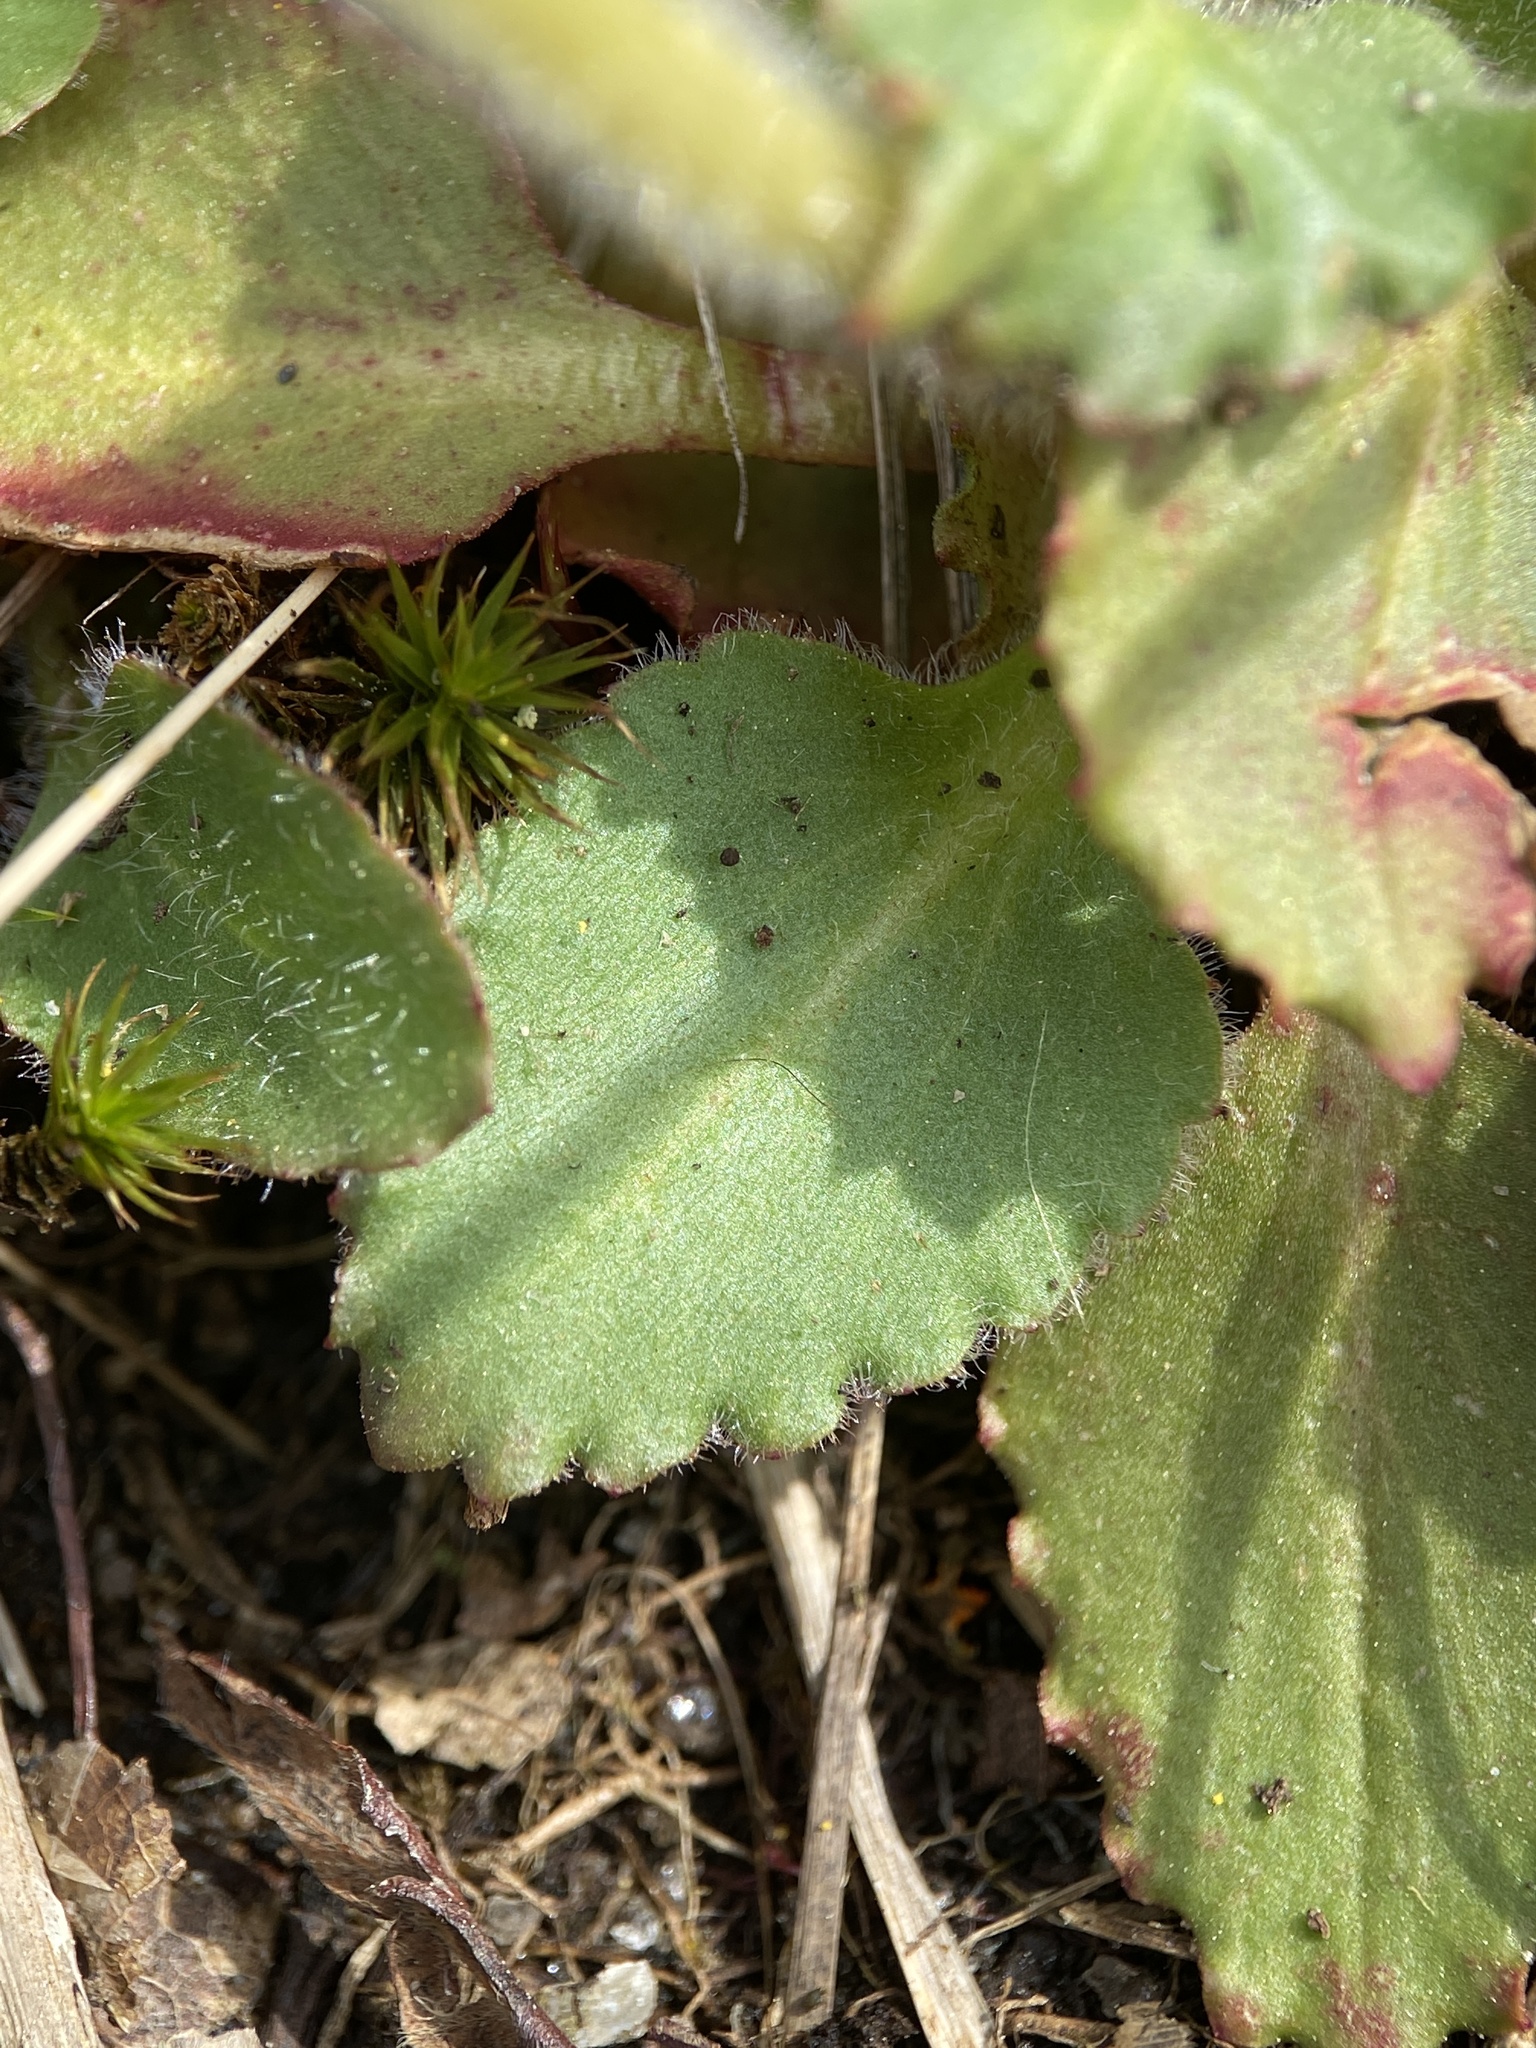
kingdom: Plantae
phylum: Tracheophyta
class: Magnoliopsida
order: Saxifragales
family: Saxifragaceae
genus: Micranthes
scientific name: Micranthes virginiensis
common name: Early saxifrage
